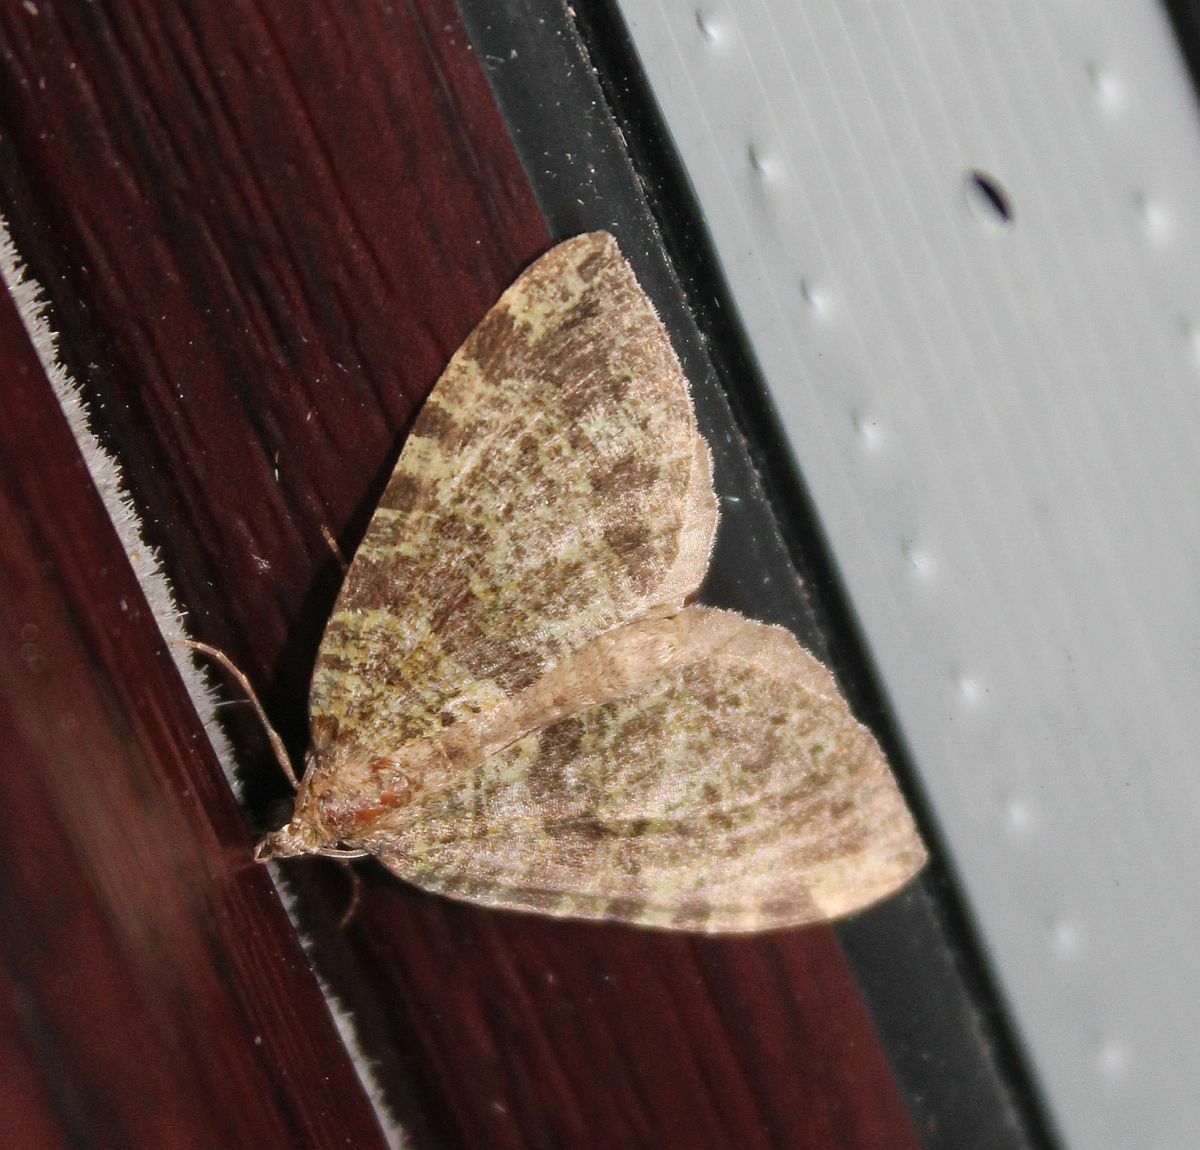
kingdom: Animalia
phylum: Arthropoda
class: Insecta
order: Lepidoptera
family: Geometridae
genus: Hydriomena
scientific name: Hydriomena furcata
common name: July highflyer
